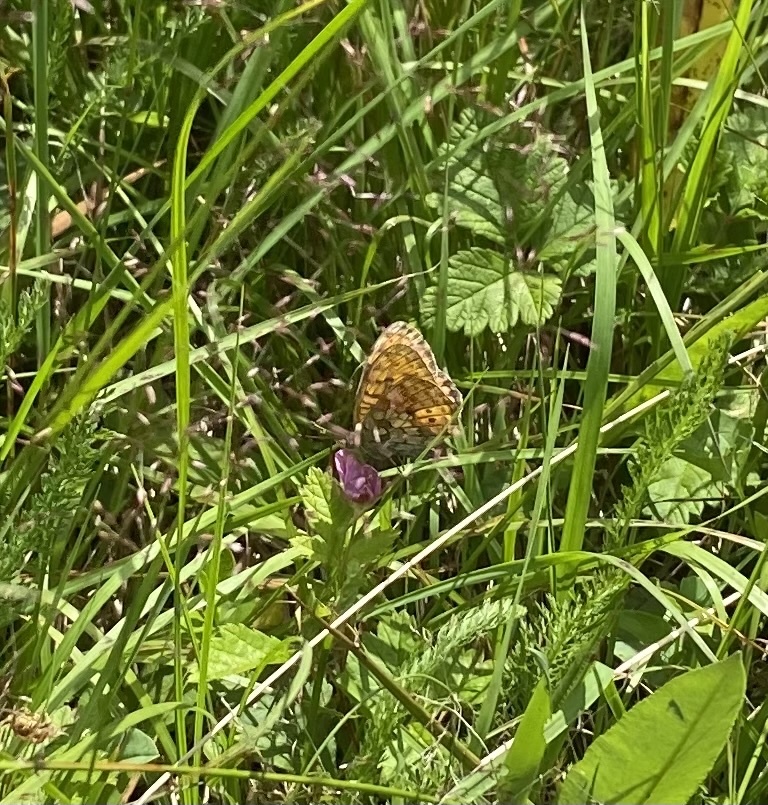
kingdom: Animalia
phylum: Arthropoda
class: Insecta
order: Lepidoptera
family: Nymphalidae
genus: Brenthis
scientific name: Brenthis ino
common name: Lesser marbled fritillary
